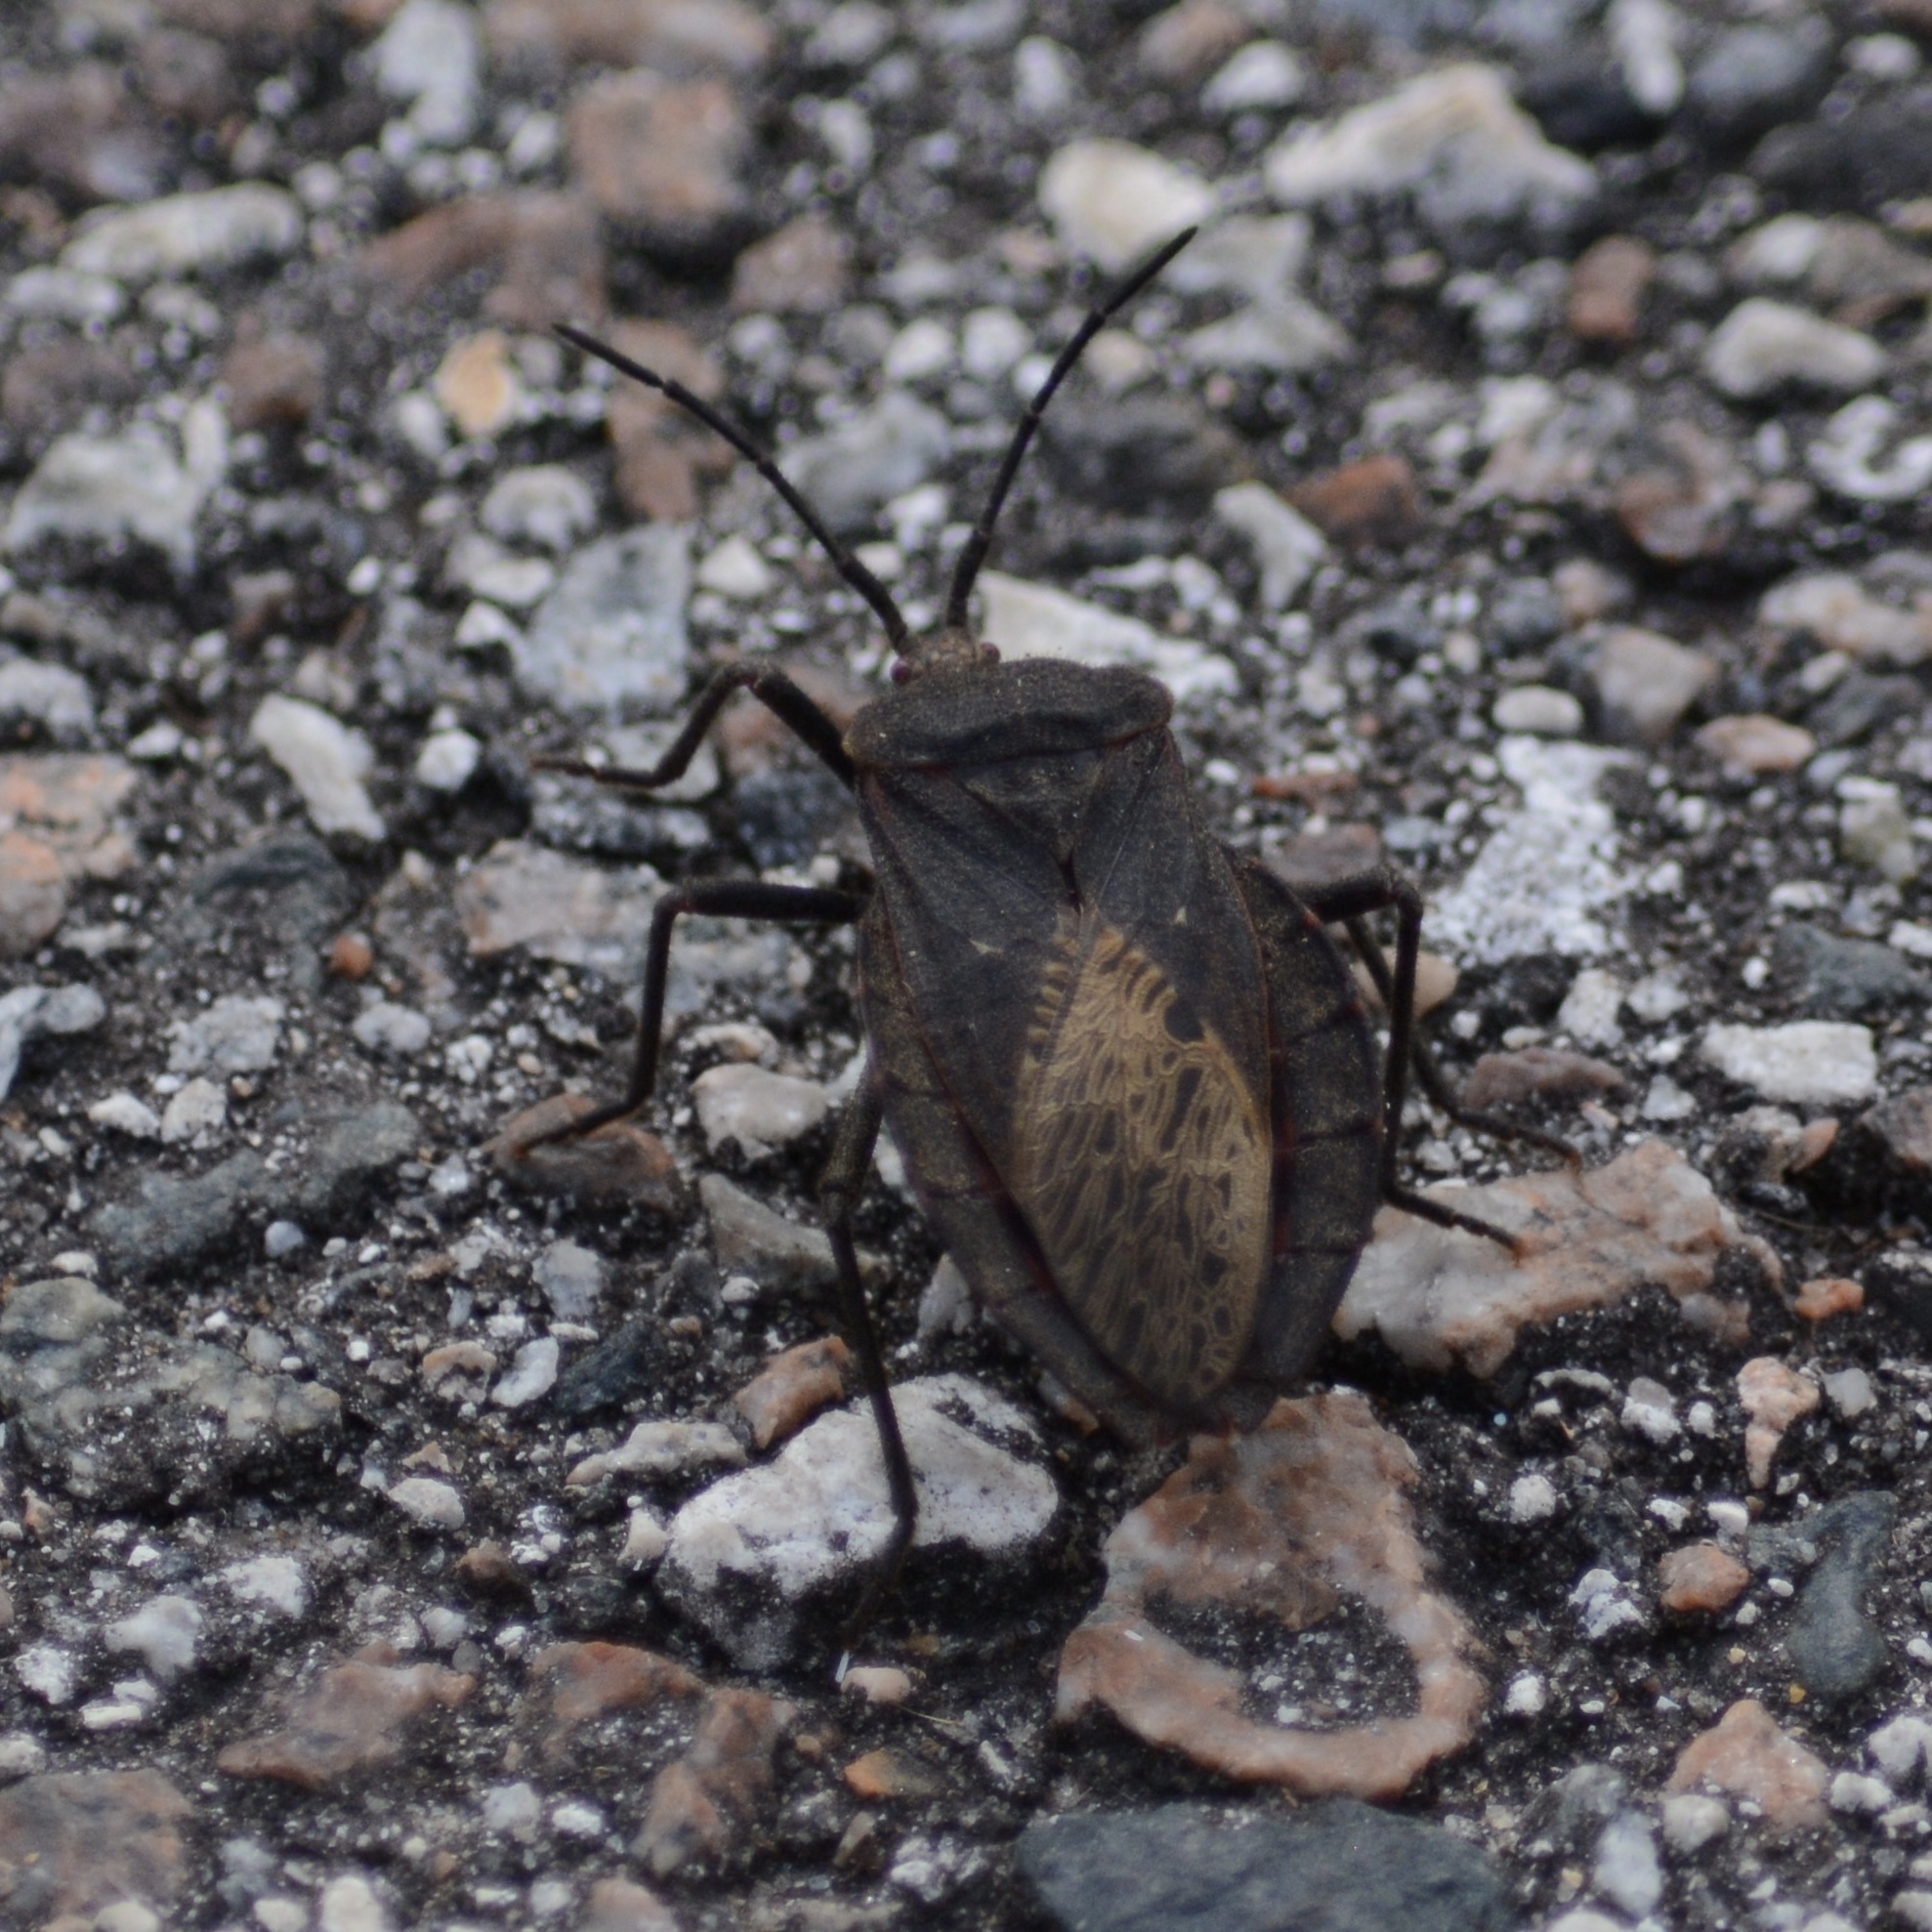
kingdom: Animalia
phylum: Arthropoda
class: Insecta
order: Hemiptera
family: Coreidae
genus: Spartocera
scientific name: Spartocera batatas
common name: Giant sweetpotato bug
